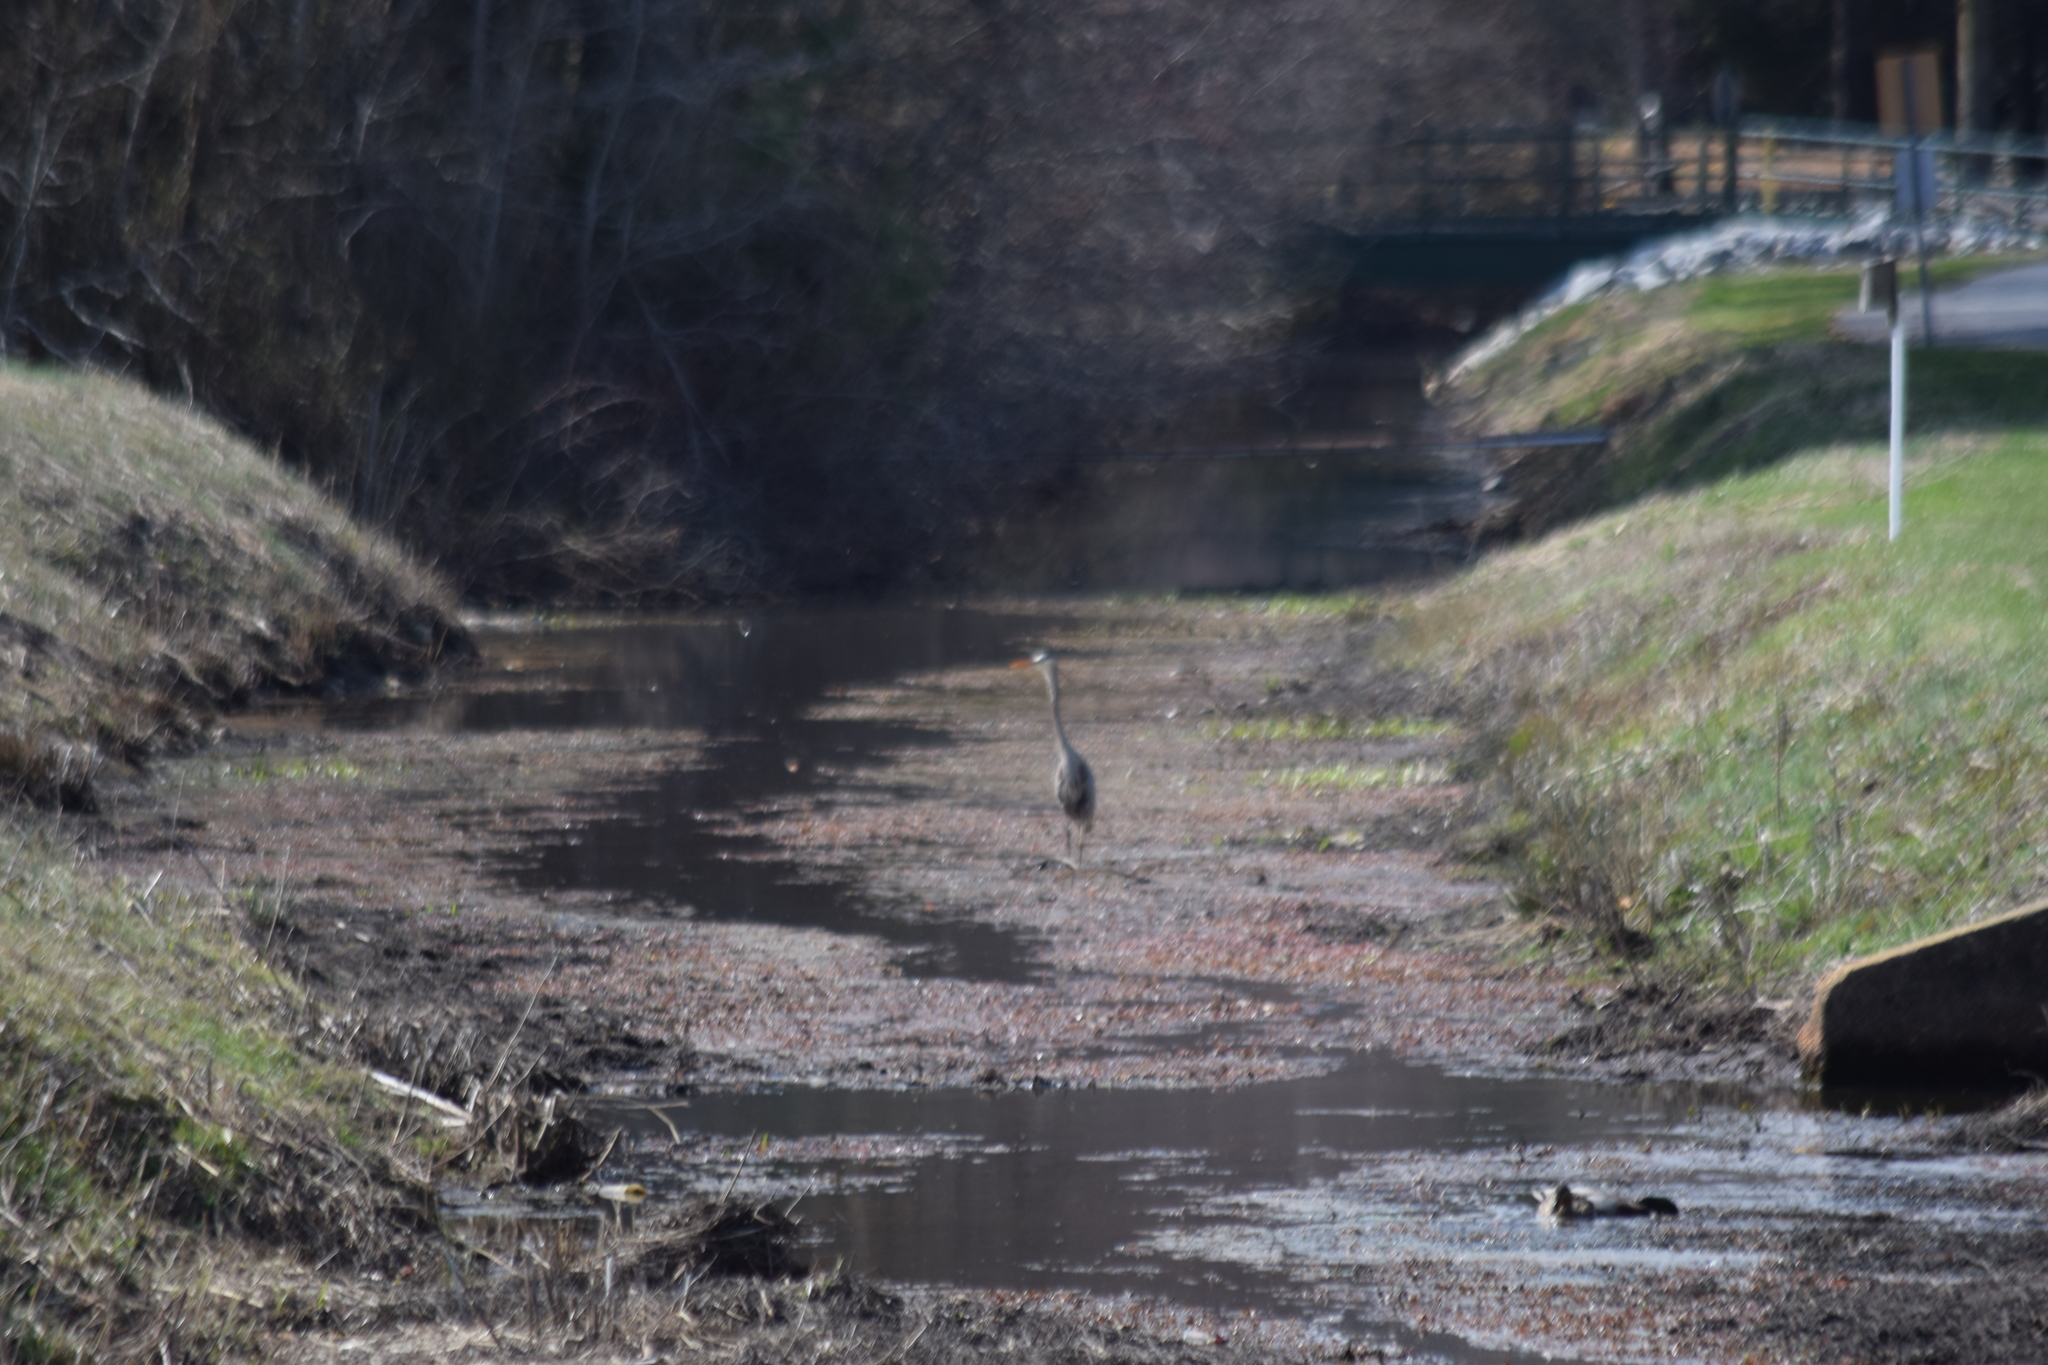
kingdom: Animalia
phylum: Chordata
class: Aves
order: Pelecaniformes
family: Ardeidae
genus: Ardea
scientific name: Ardea herodias
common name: Great blue heron
